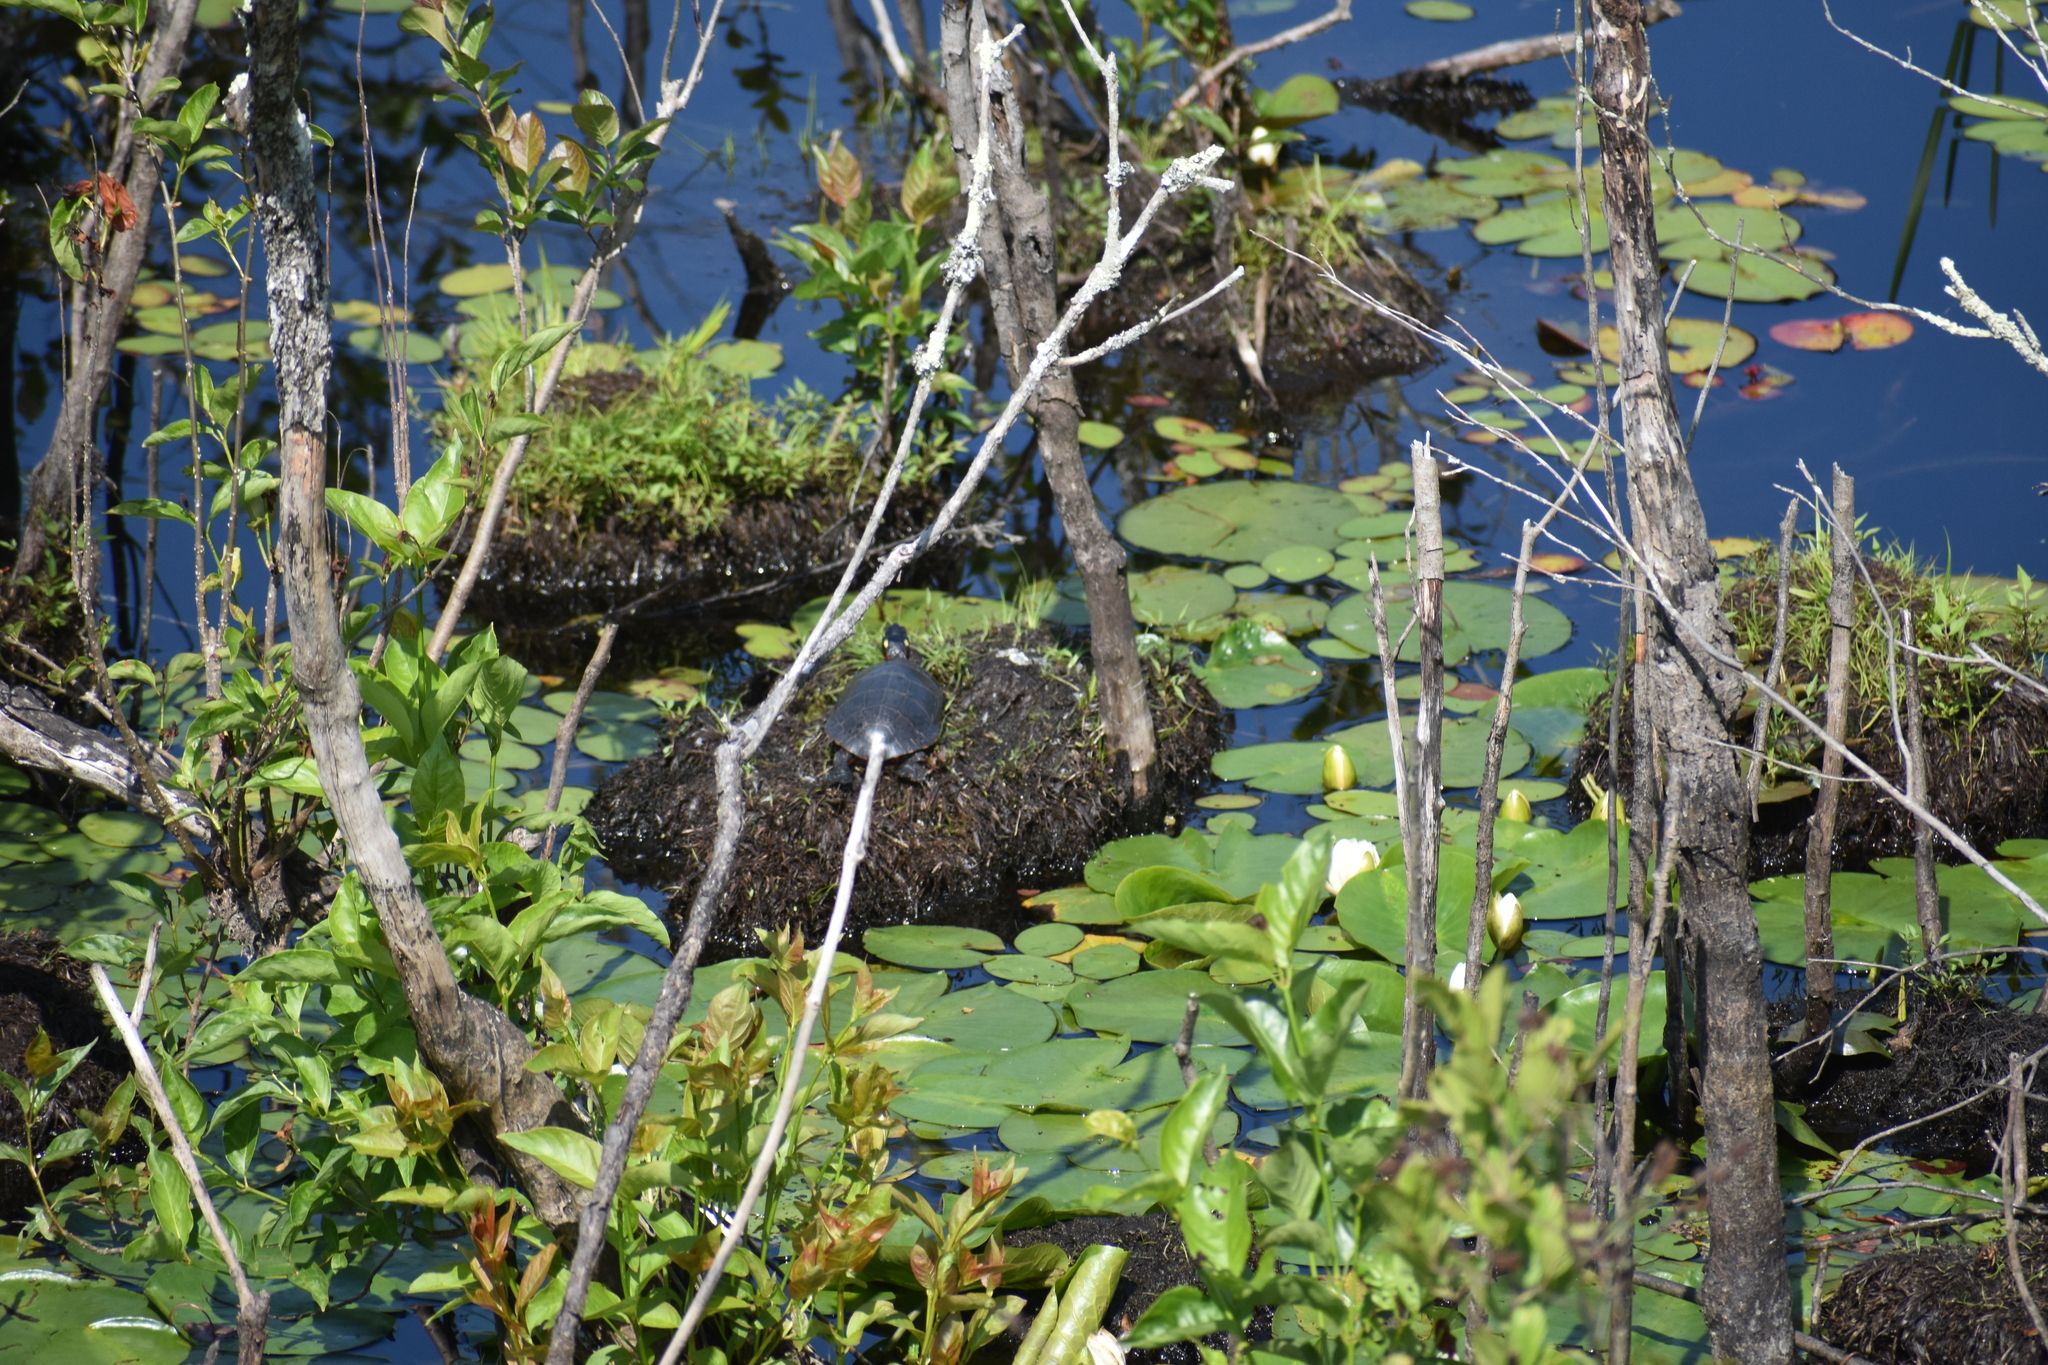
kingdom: Animalia
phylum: Chordata
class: Testudines
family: Emydidae
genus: Chrysemys
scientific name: Chrysemys picta
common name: Painted turtle
